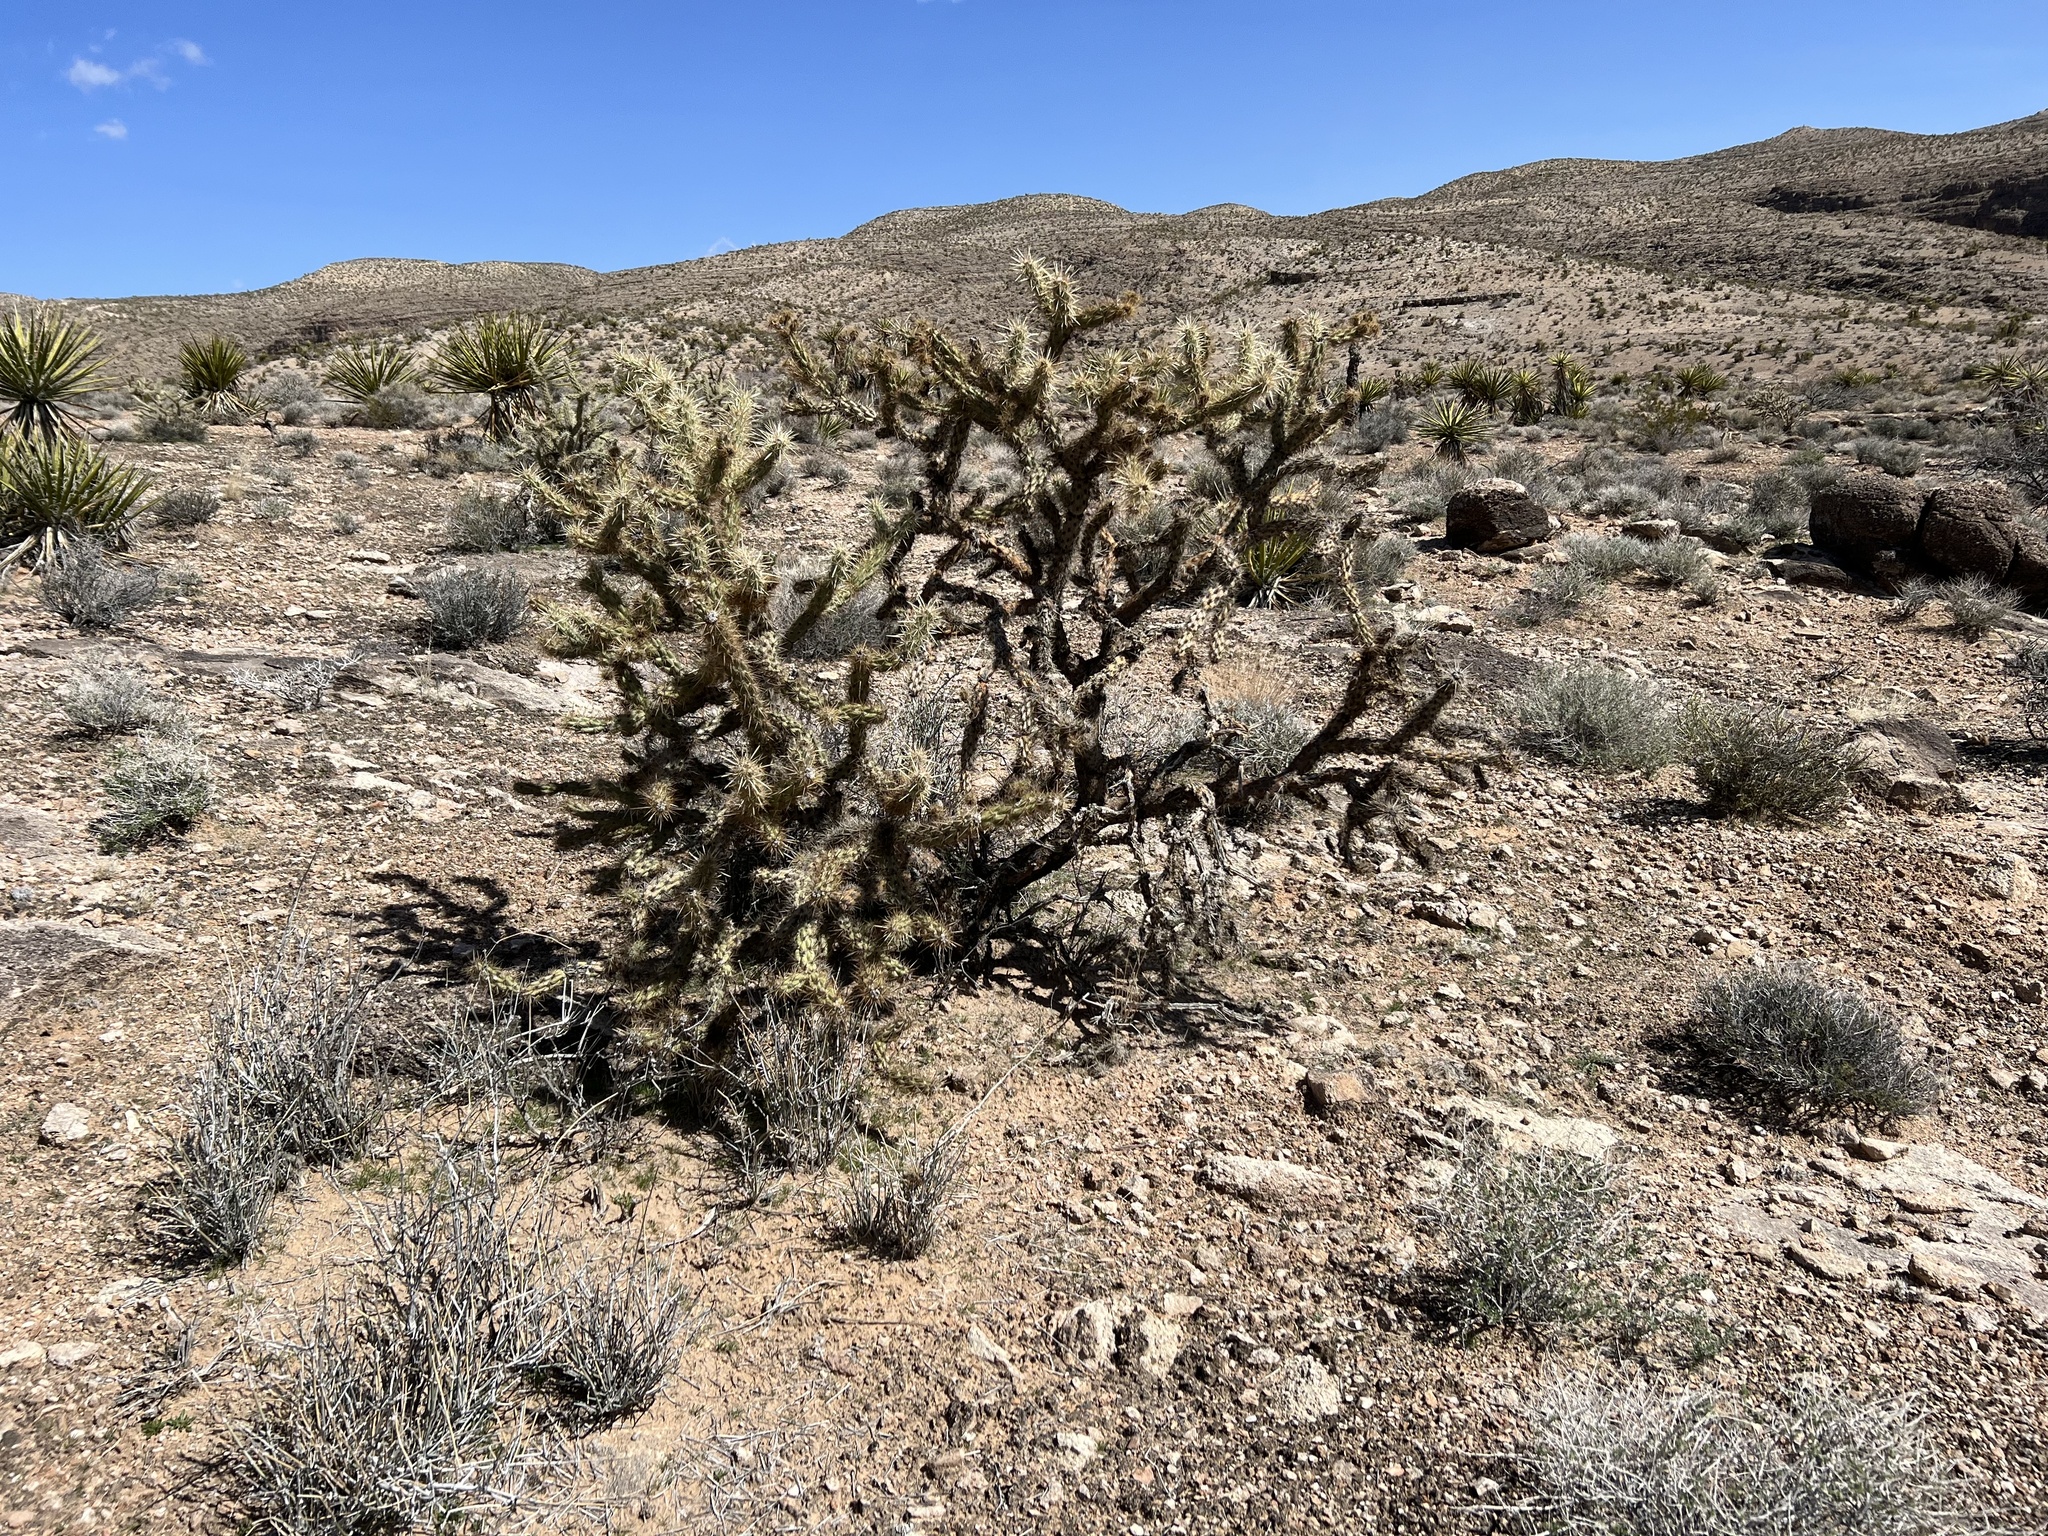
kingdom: Plantae
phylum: Tracheophyta
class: Magnoliopsida
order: Caryophyllales
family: Cactaceae
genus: Cylindropuntia
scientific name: Cylindropuntia acanthocarpa
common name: Buckhorn cholla
